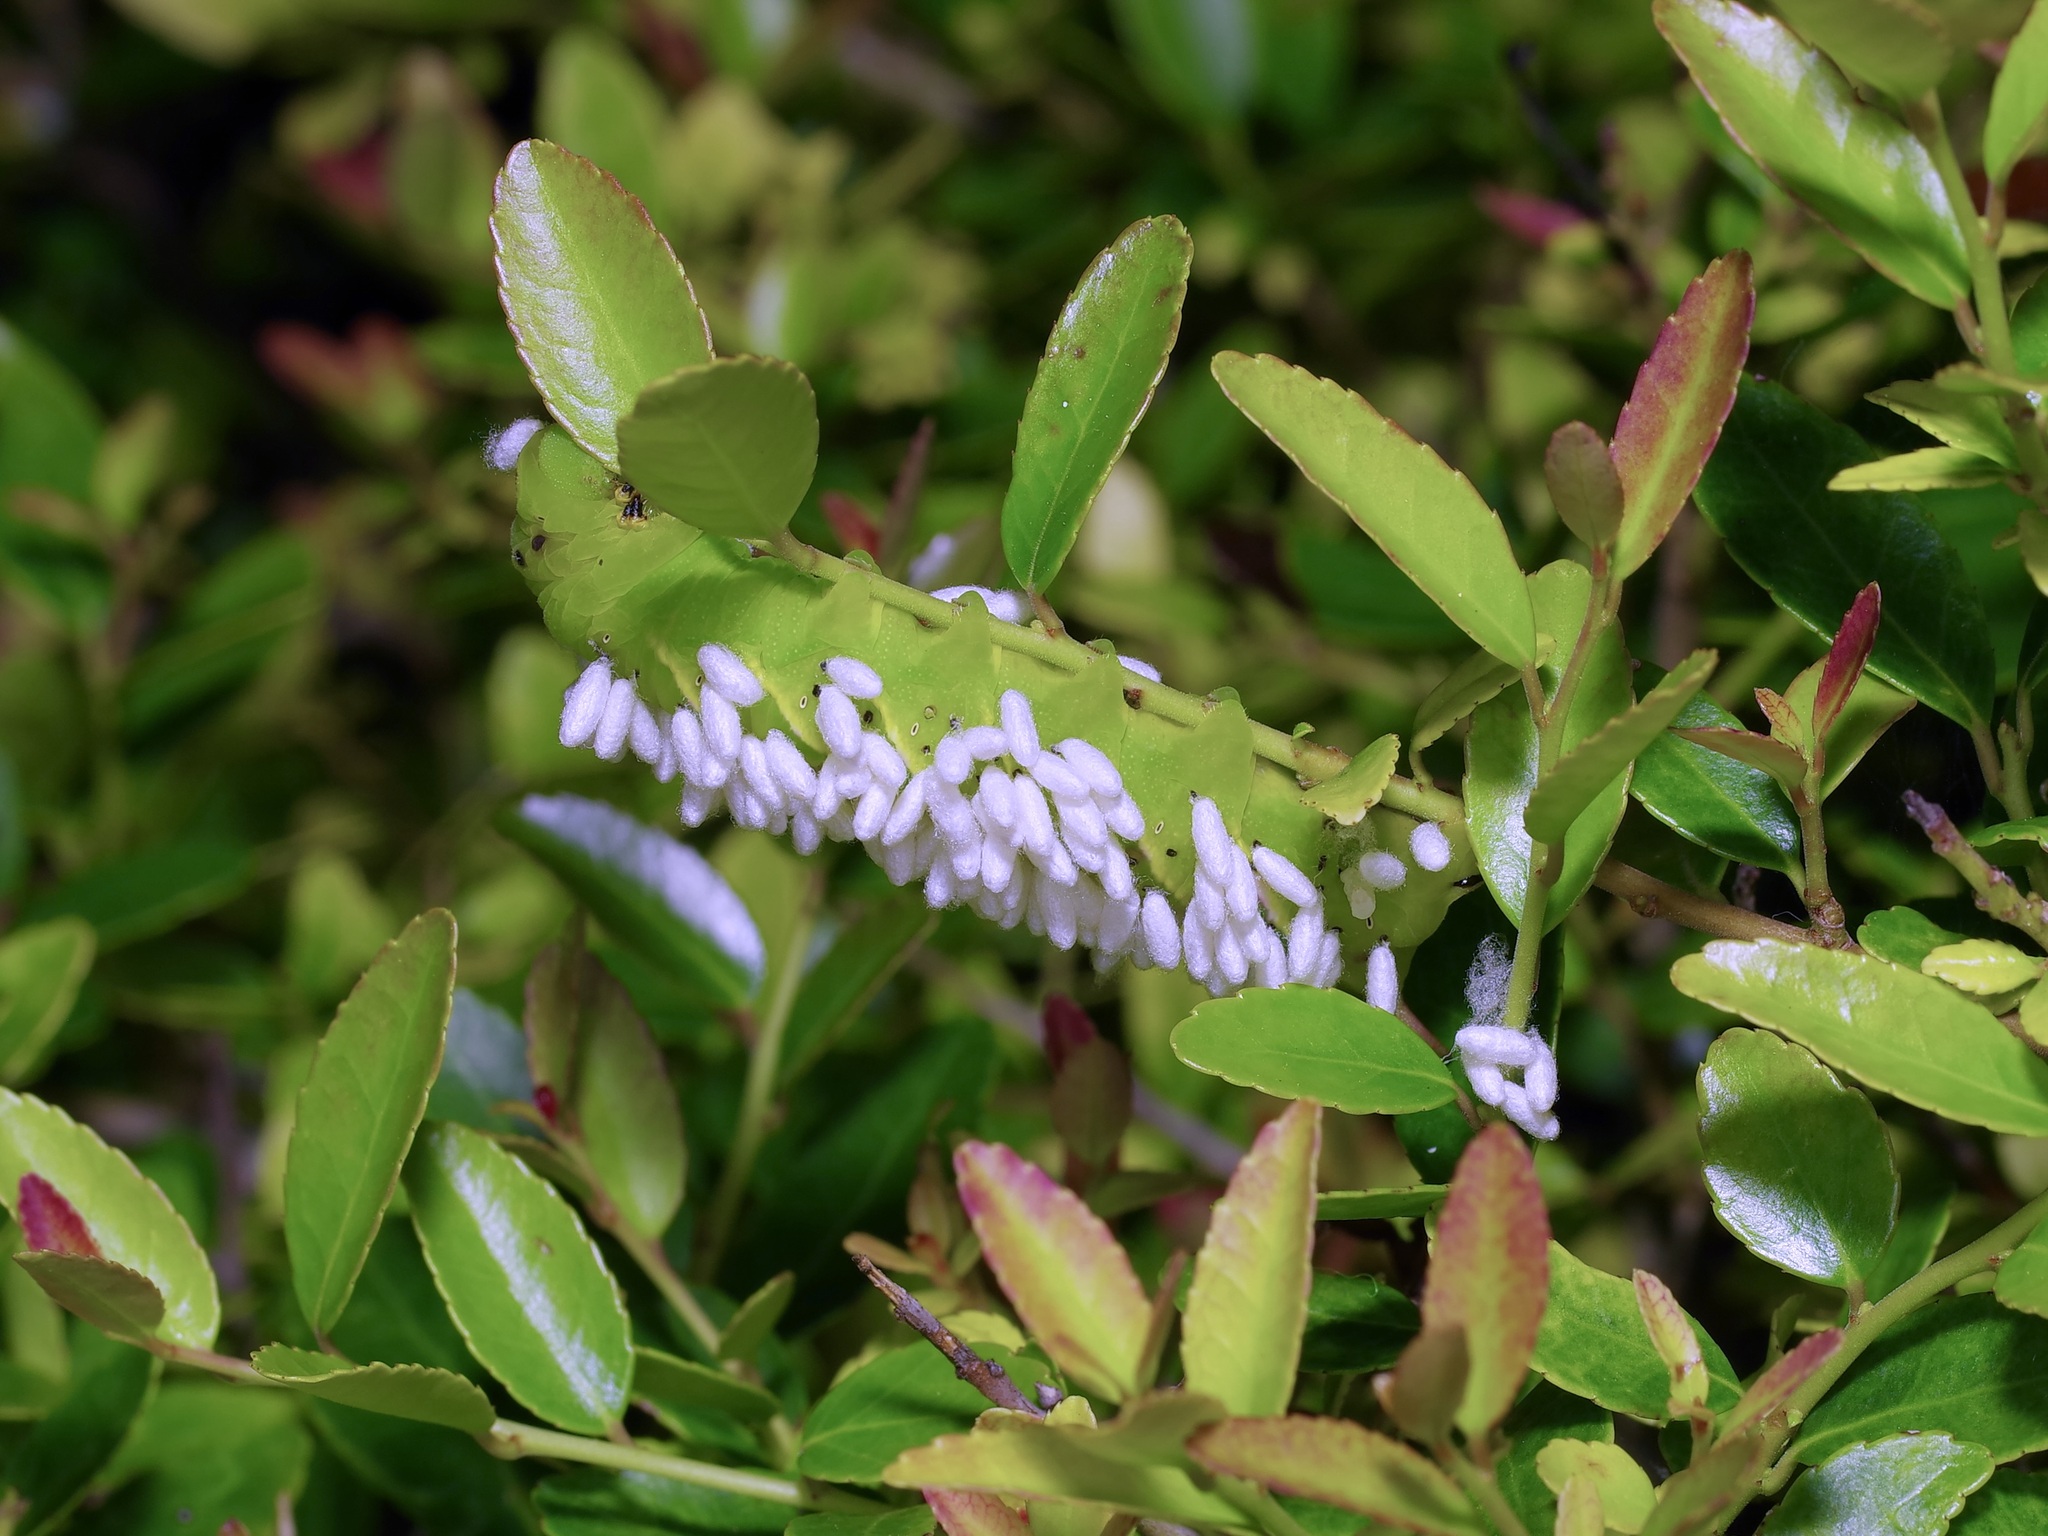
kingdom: Animalia
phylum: Arthropoda
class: Insecta
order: Hymenoptera
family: Braconidae
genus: Cotesia
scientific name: Cotesia congregata
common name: Hornworm parasitoid wasp
